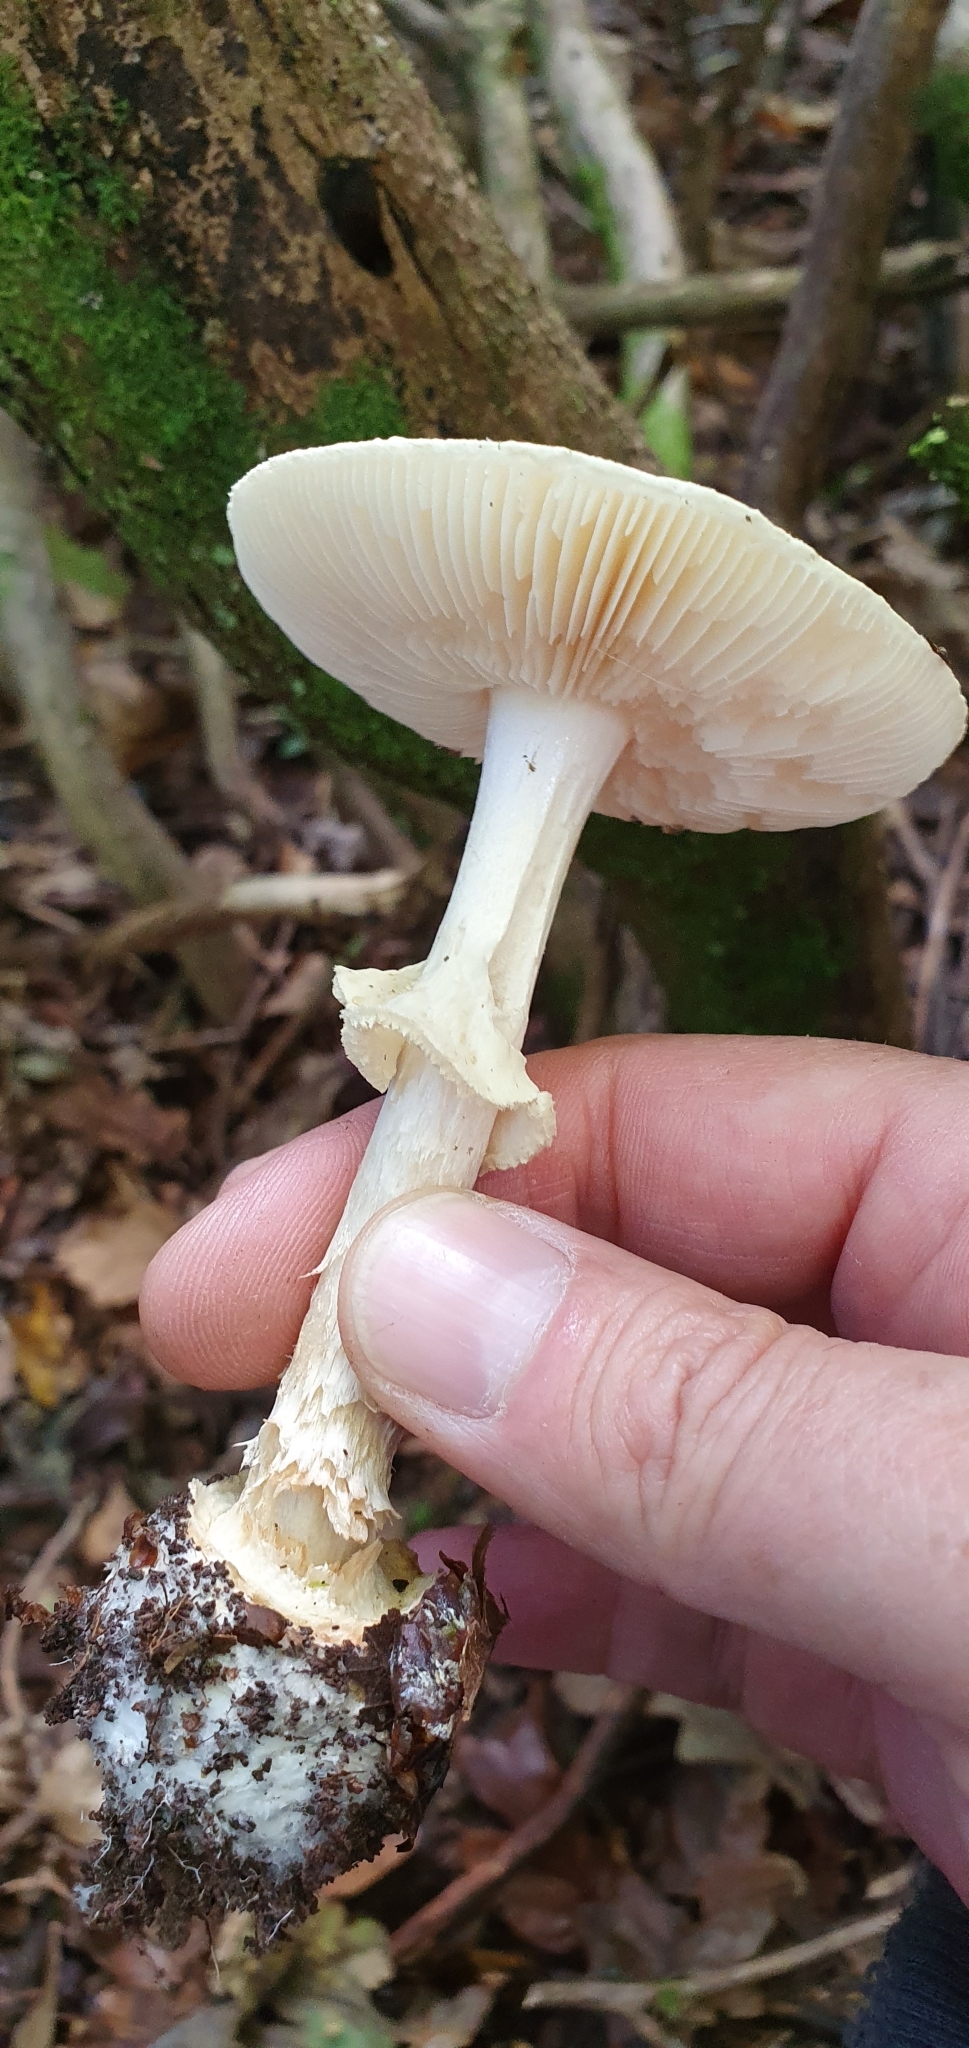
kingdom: Fungi
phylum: Basidiomycota
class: Agaricomycetes
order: Agaricales
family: Amanitaceae
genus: Amanita
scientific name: Amanita citrina
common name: False death-cap
